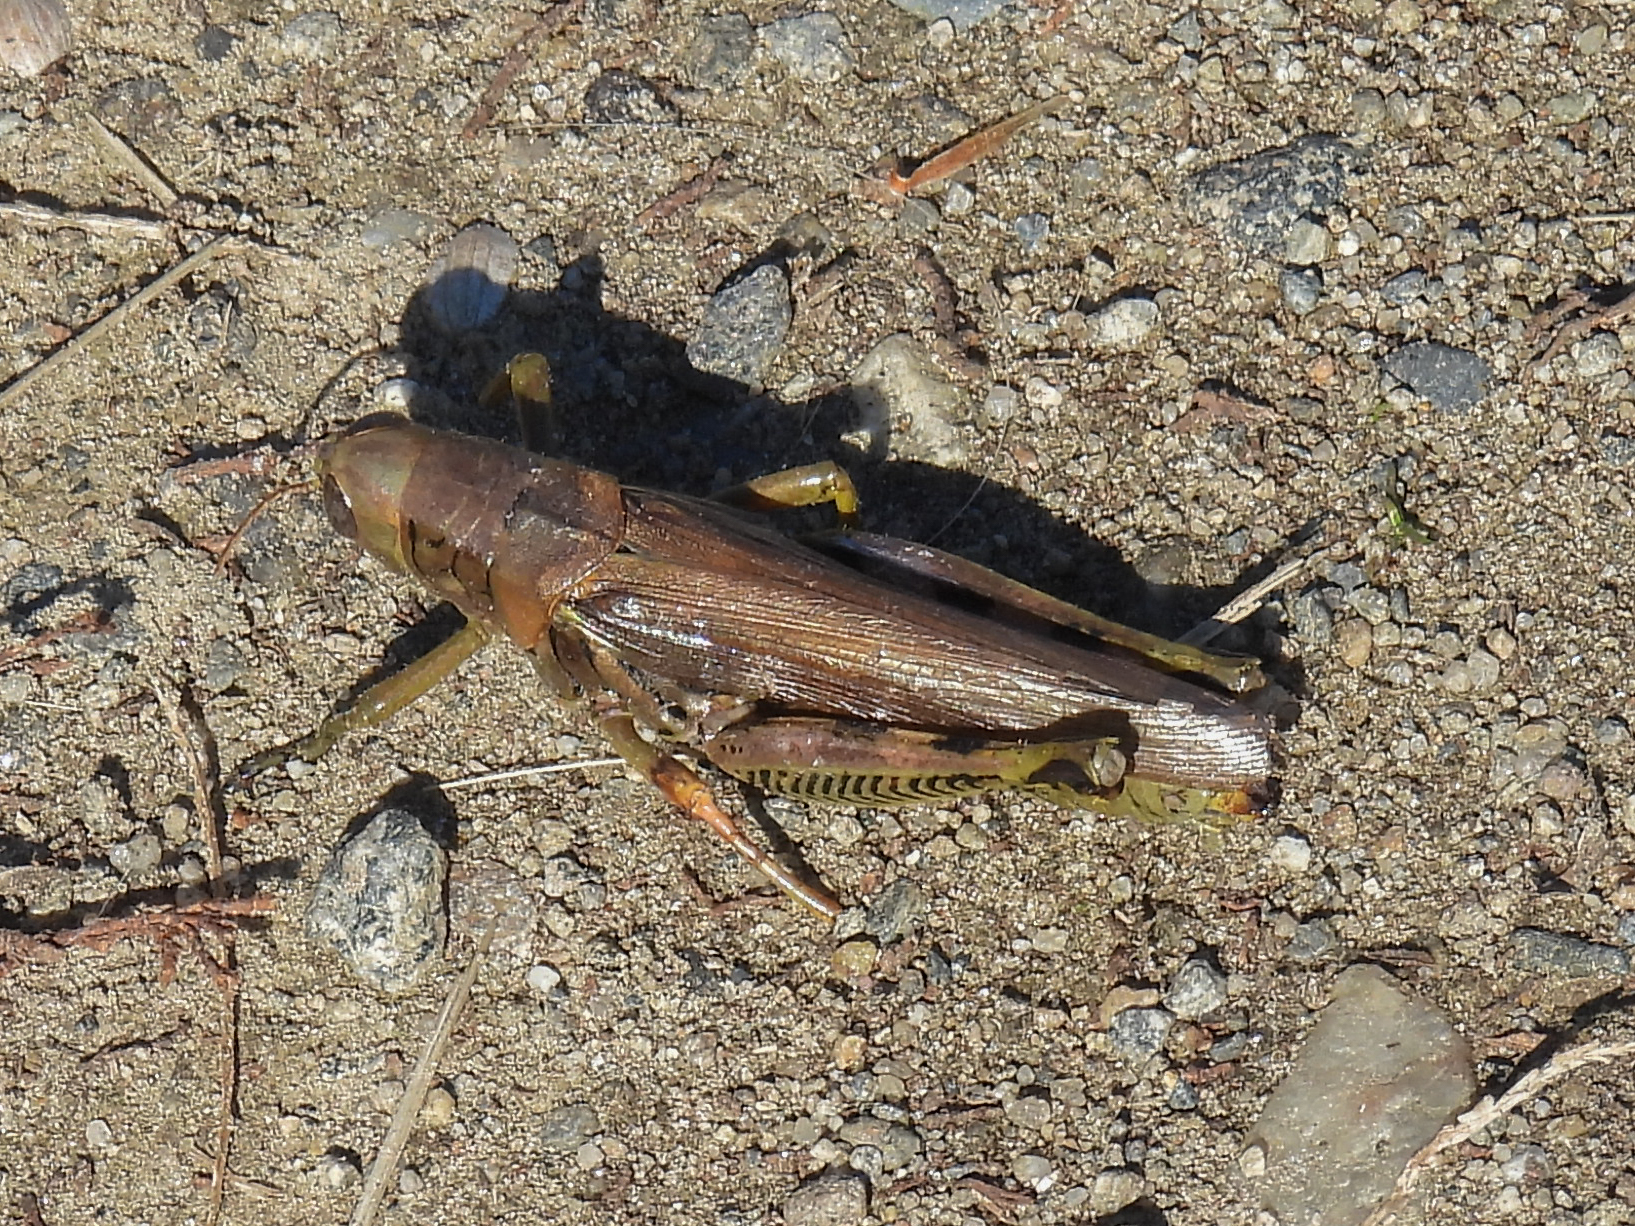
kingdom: Animalia
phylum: Arthropoda
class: Insecta
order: Orthoptera
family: Acrididae
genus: Melanoplus
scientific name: Melanoplus differentialis
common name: Differential grasshopper
